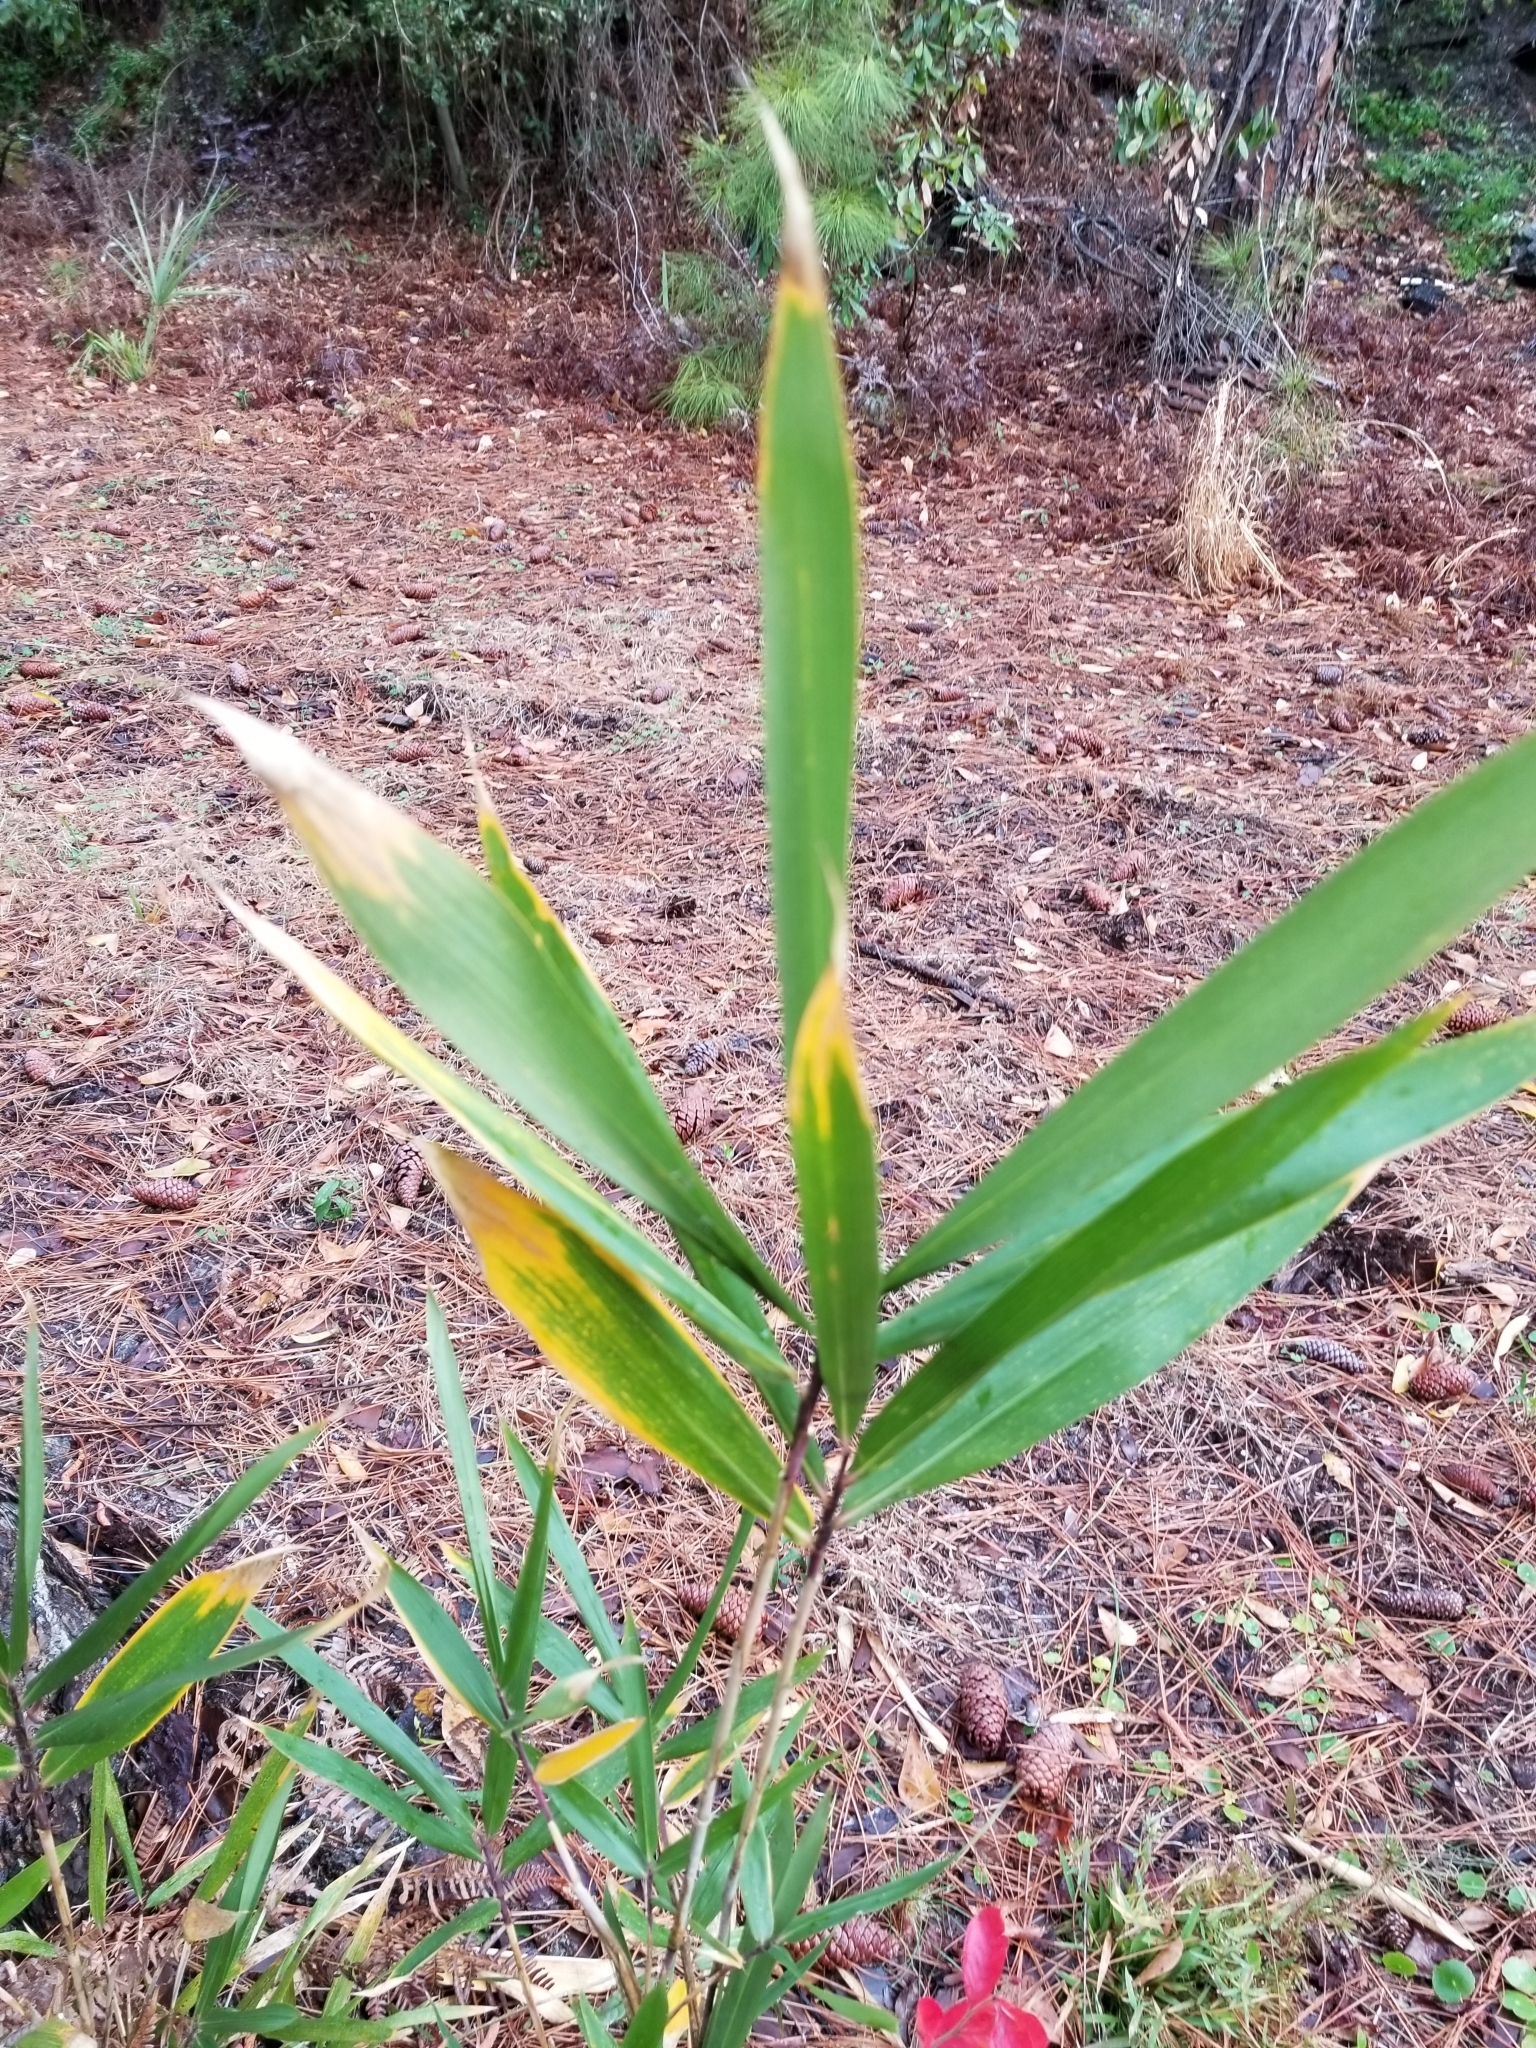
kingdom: Plantae
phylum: Tracheophyta
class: Liliopsida
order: Poales
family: Poaceae
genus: Arundinaria
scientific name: Arundinaria tecta
